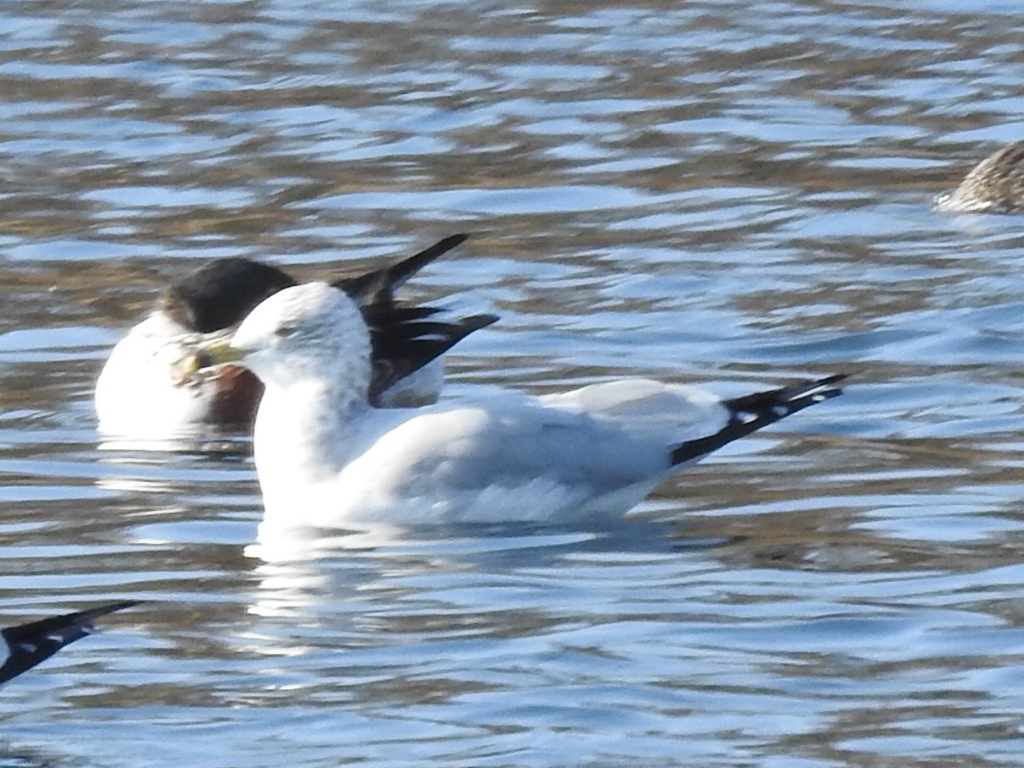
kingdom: Animalia
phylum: Chordata
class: Aves
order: Charadriiformes
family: Laridae
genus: Larus
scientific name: Larus delawarensis
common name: Ring-billed gull
